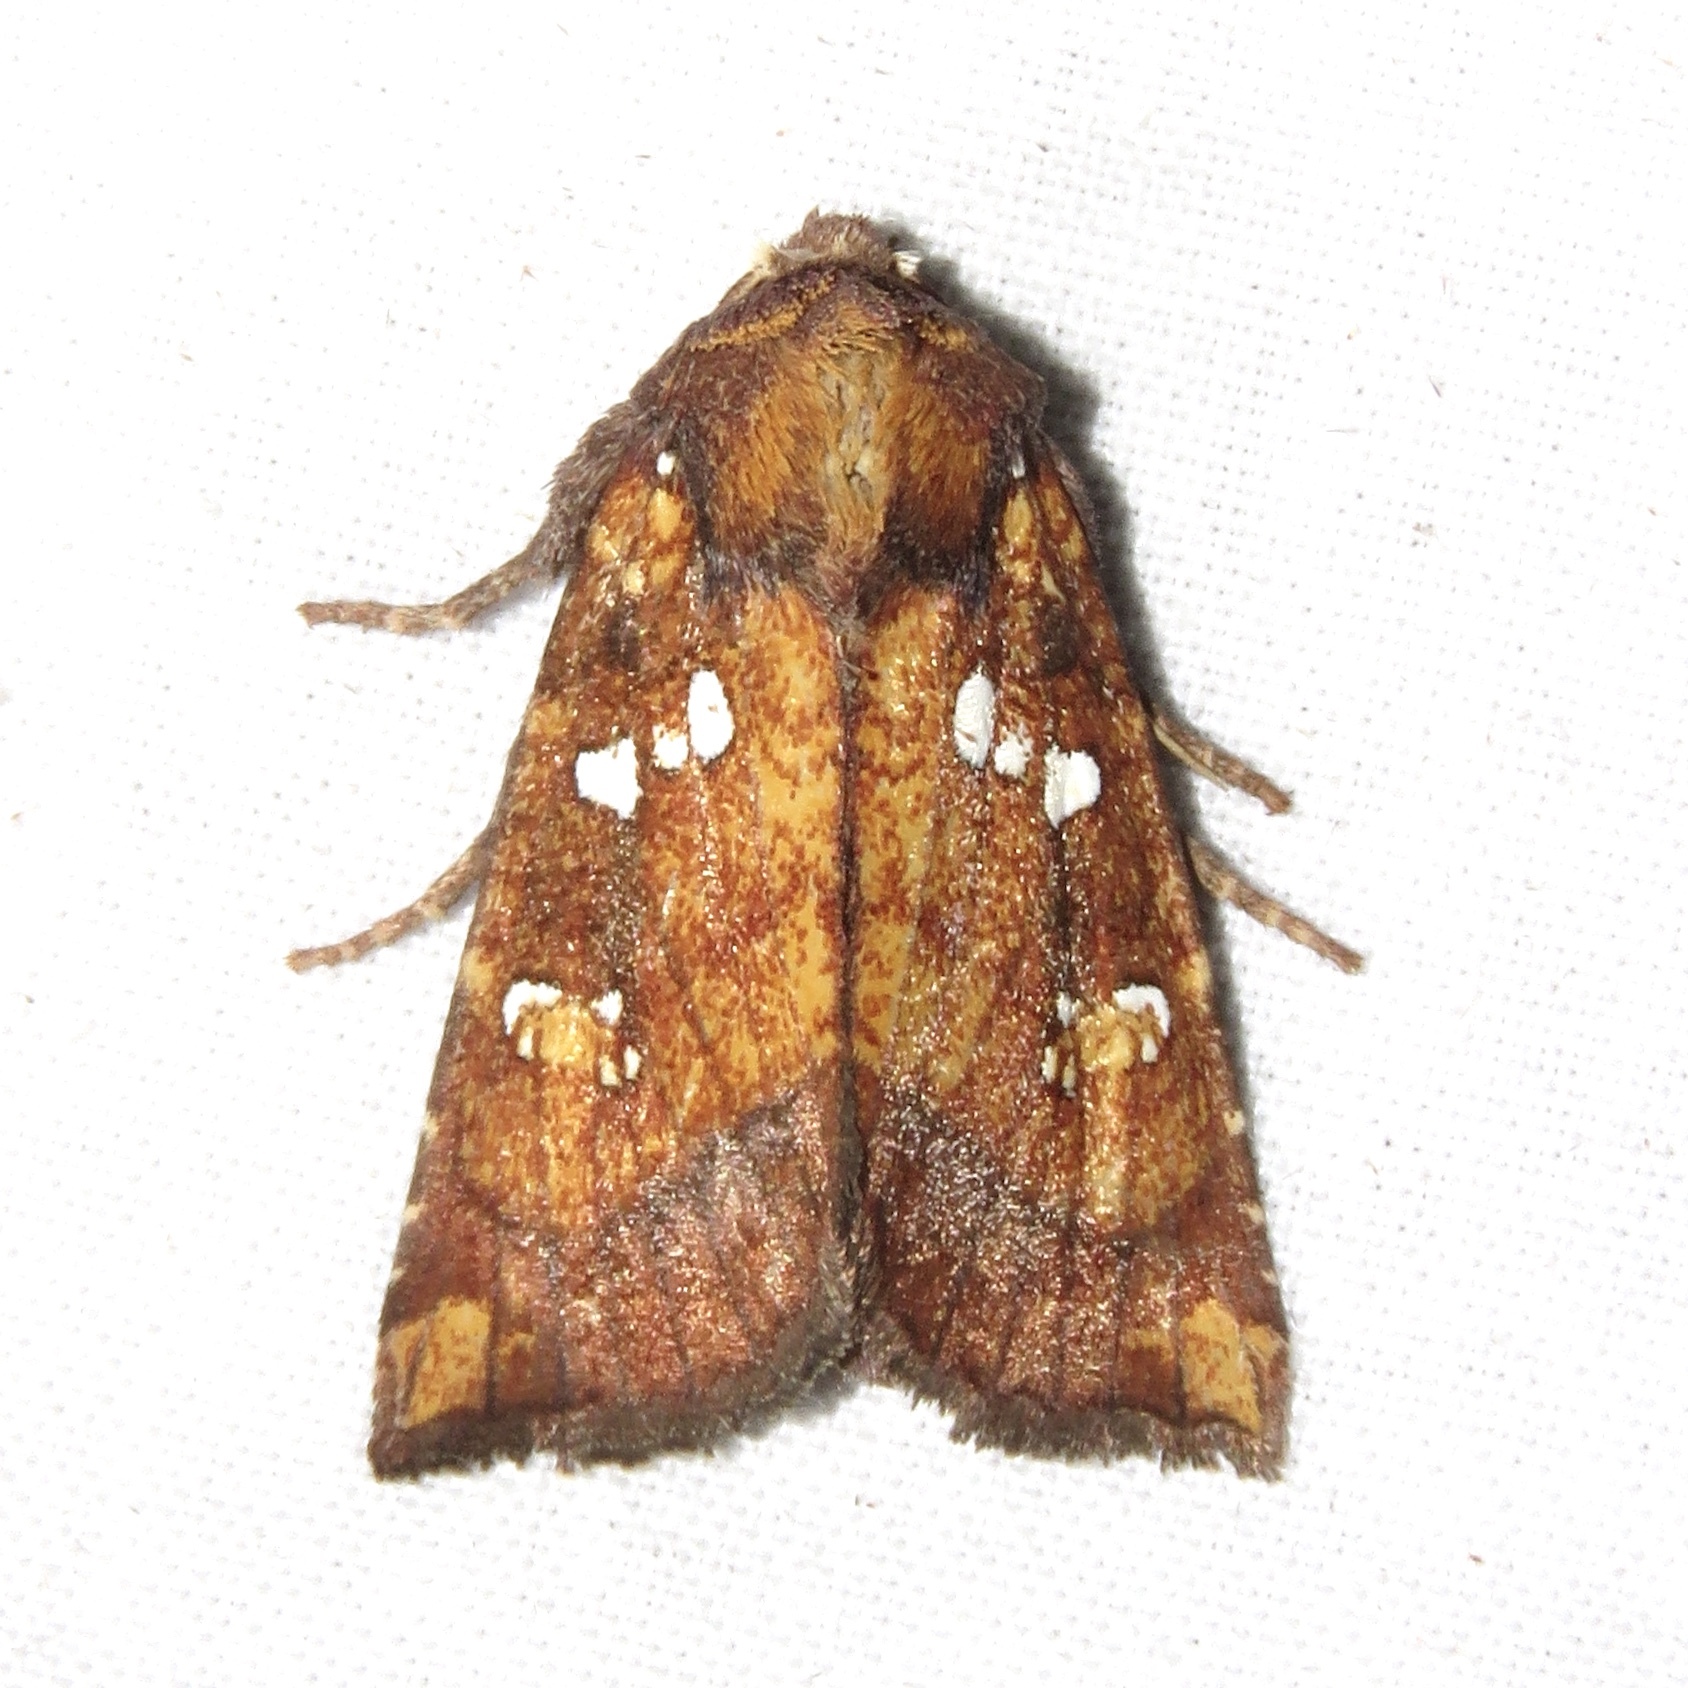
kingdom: Animalia
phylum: Arthropoda
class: Insecta
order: Lepidoptera
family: Noctuidae
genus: Papaipema
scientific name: Papaipema arctivorens
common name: Northern burdock borer moth
